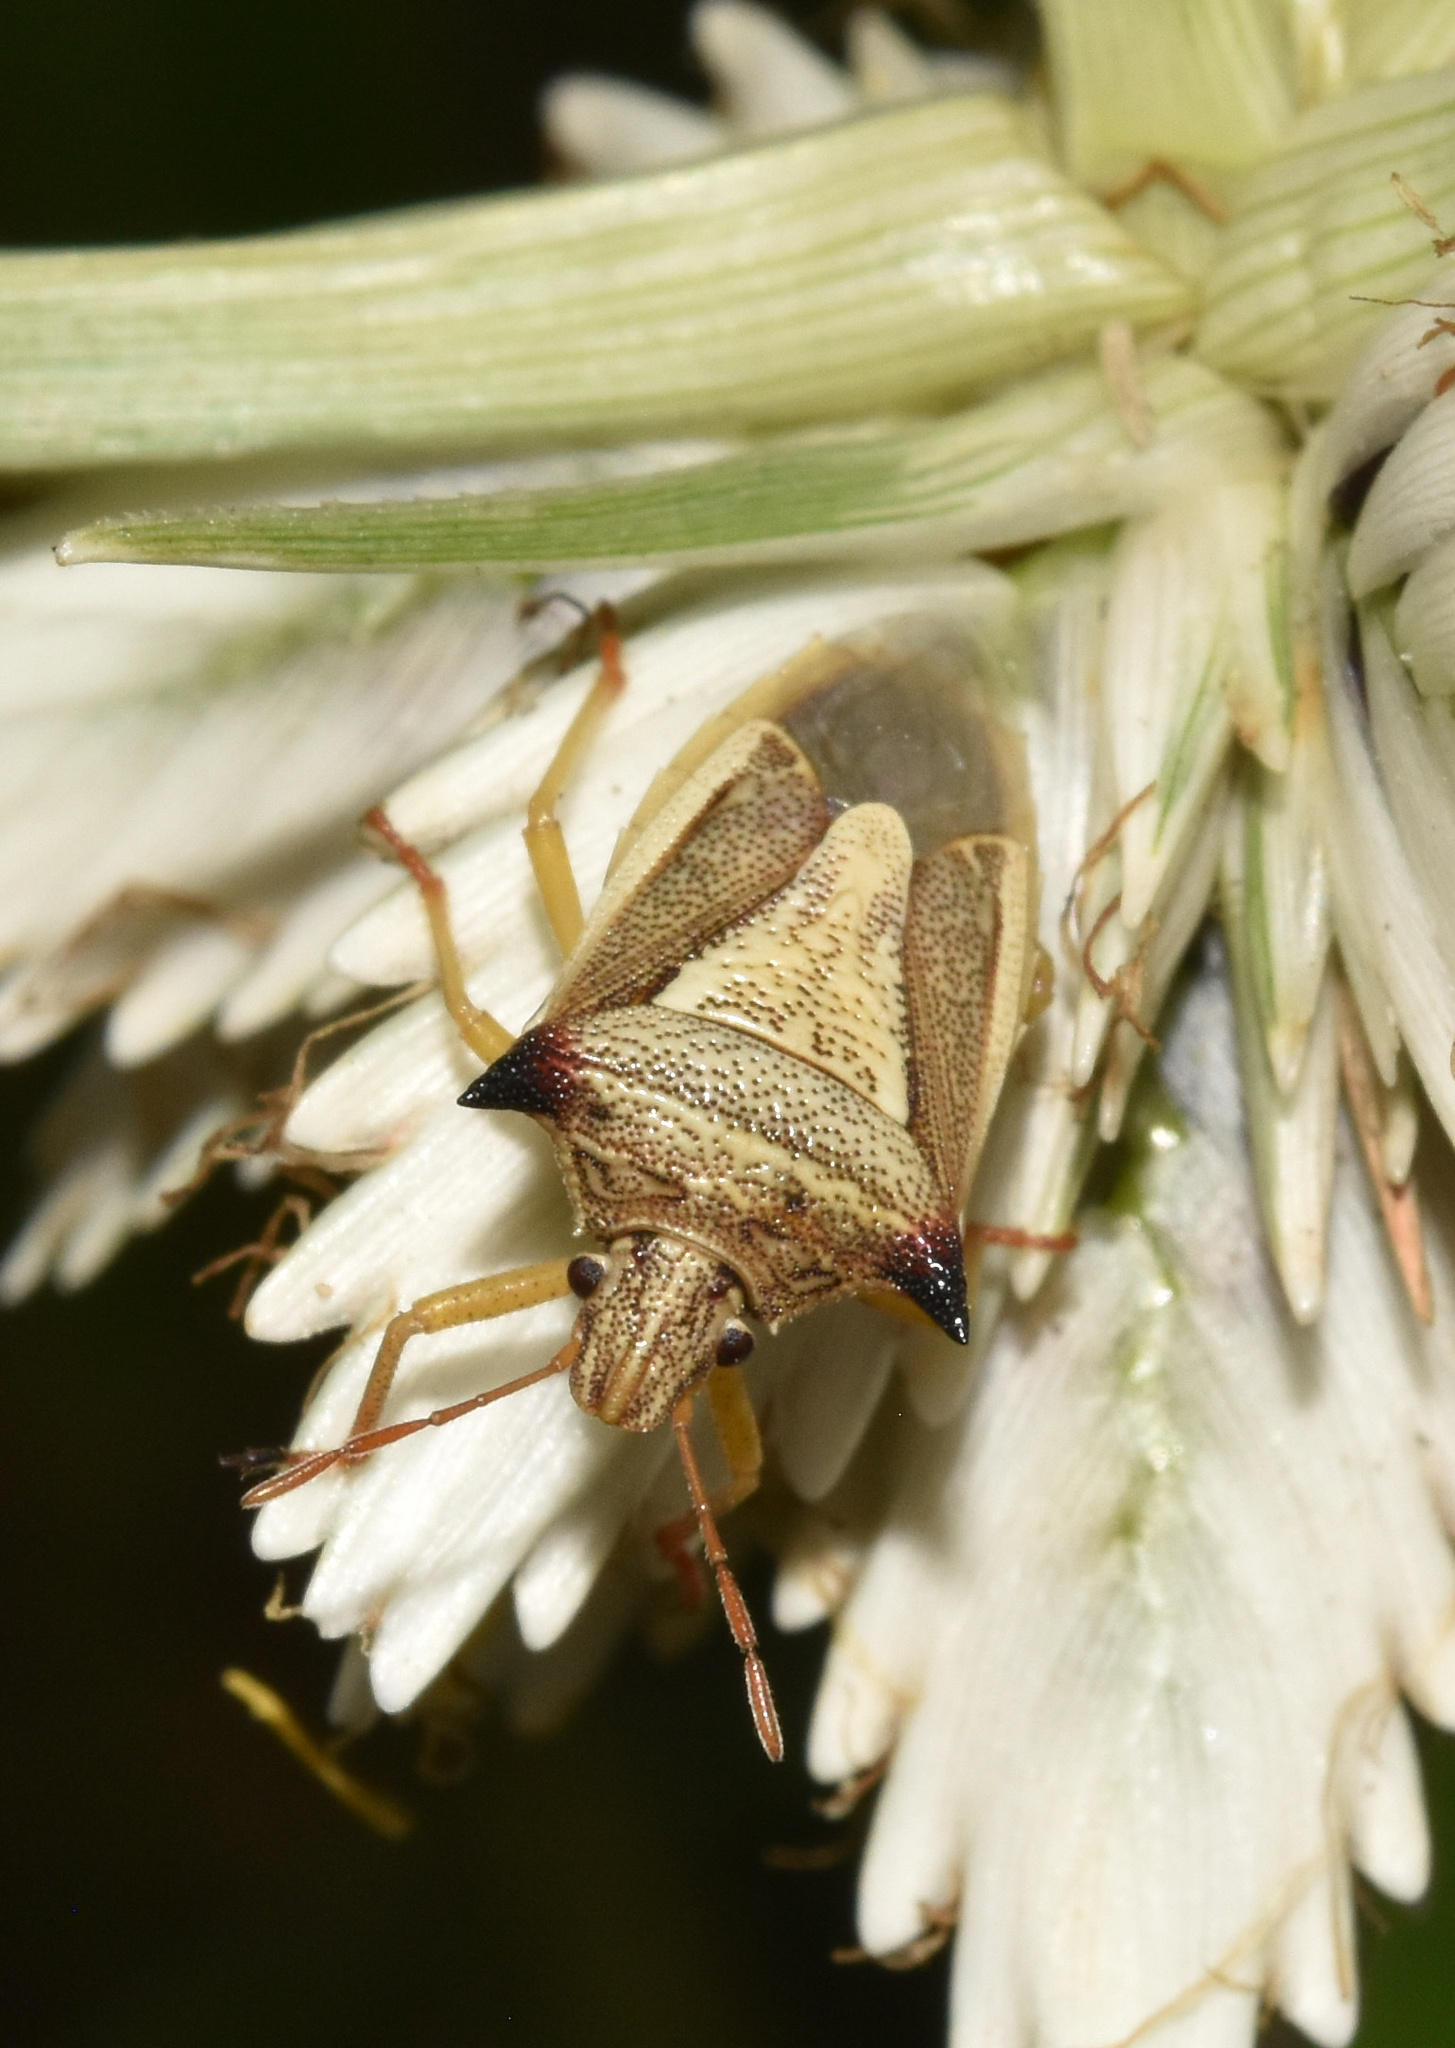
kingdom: Animalia
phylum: Arthropoda
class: Insecta
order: Hemiptera
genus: Durmia
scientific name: Durmia
